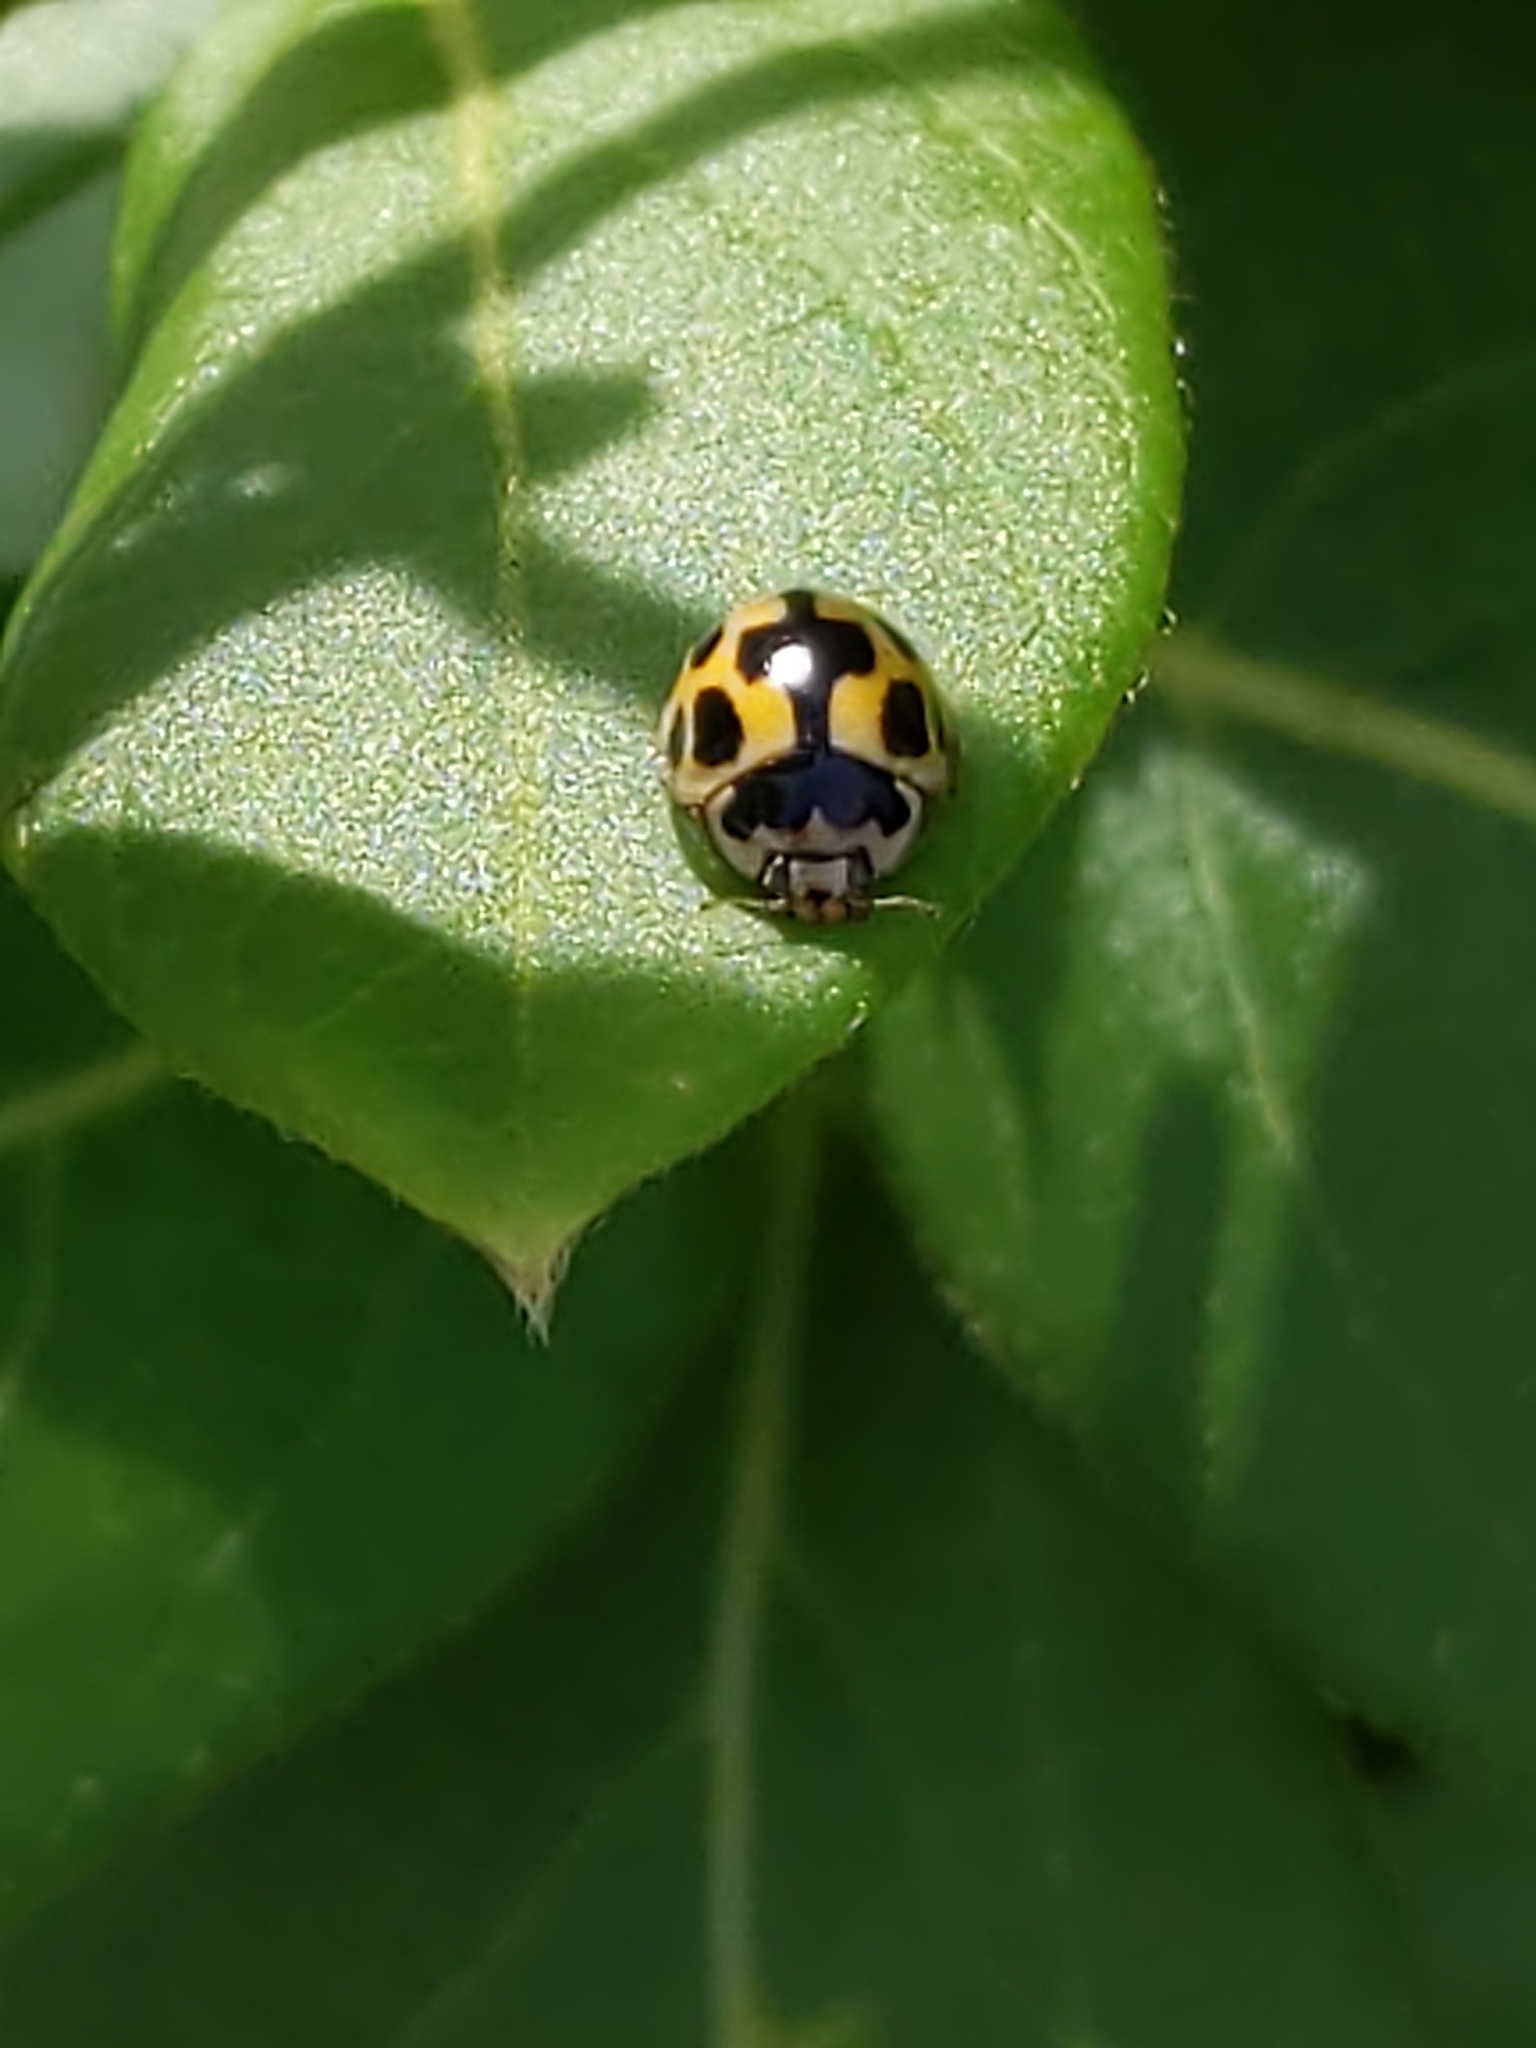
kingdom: Animalia
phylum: Arthropoda
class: Insecta
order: Coleoptera
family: Coccinellidae
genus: Propylaea
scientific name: Propylaea quatuordecimpunctata
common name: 14-spotted ladybird beetle
